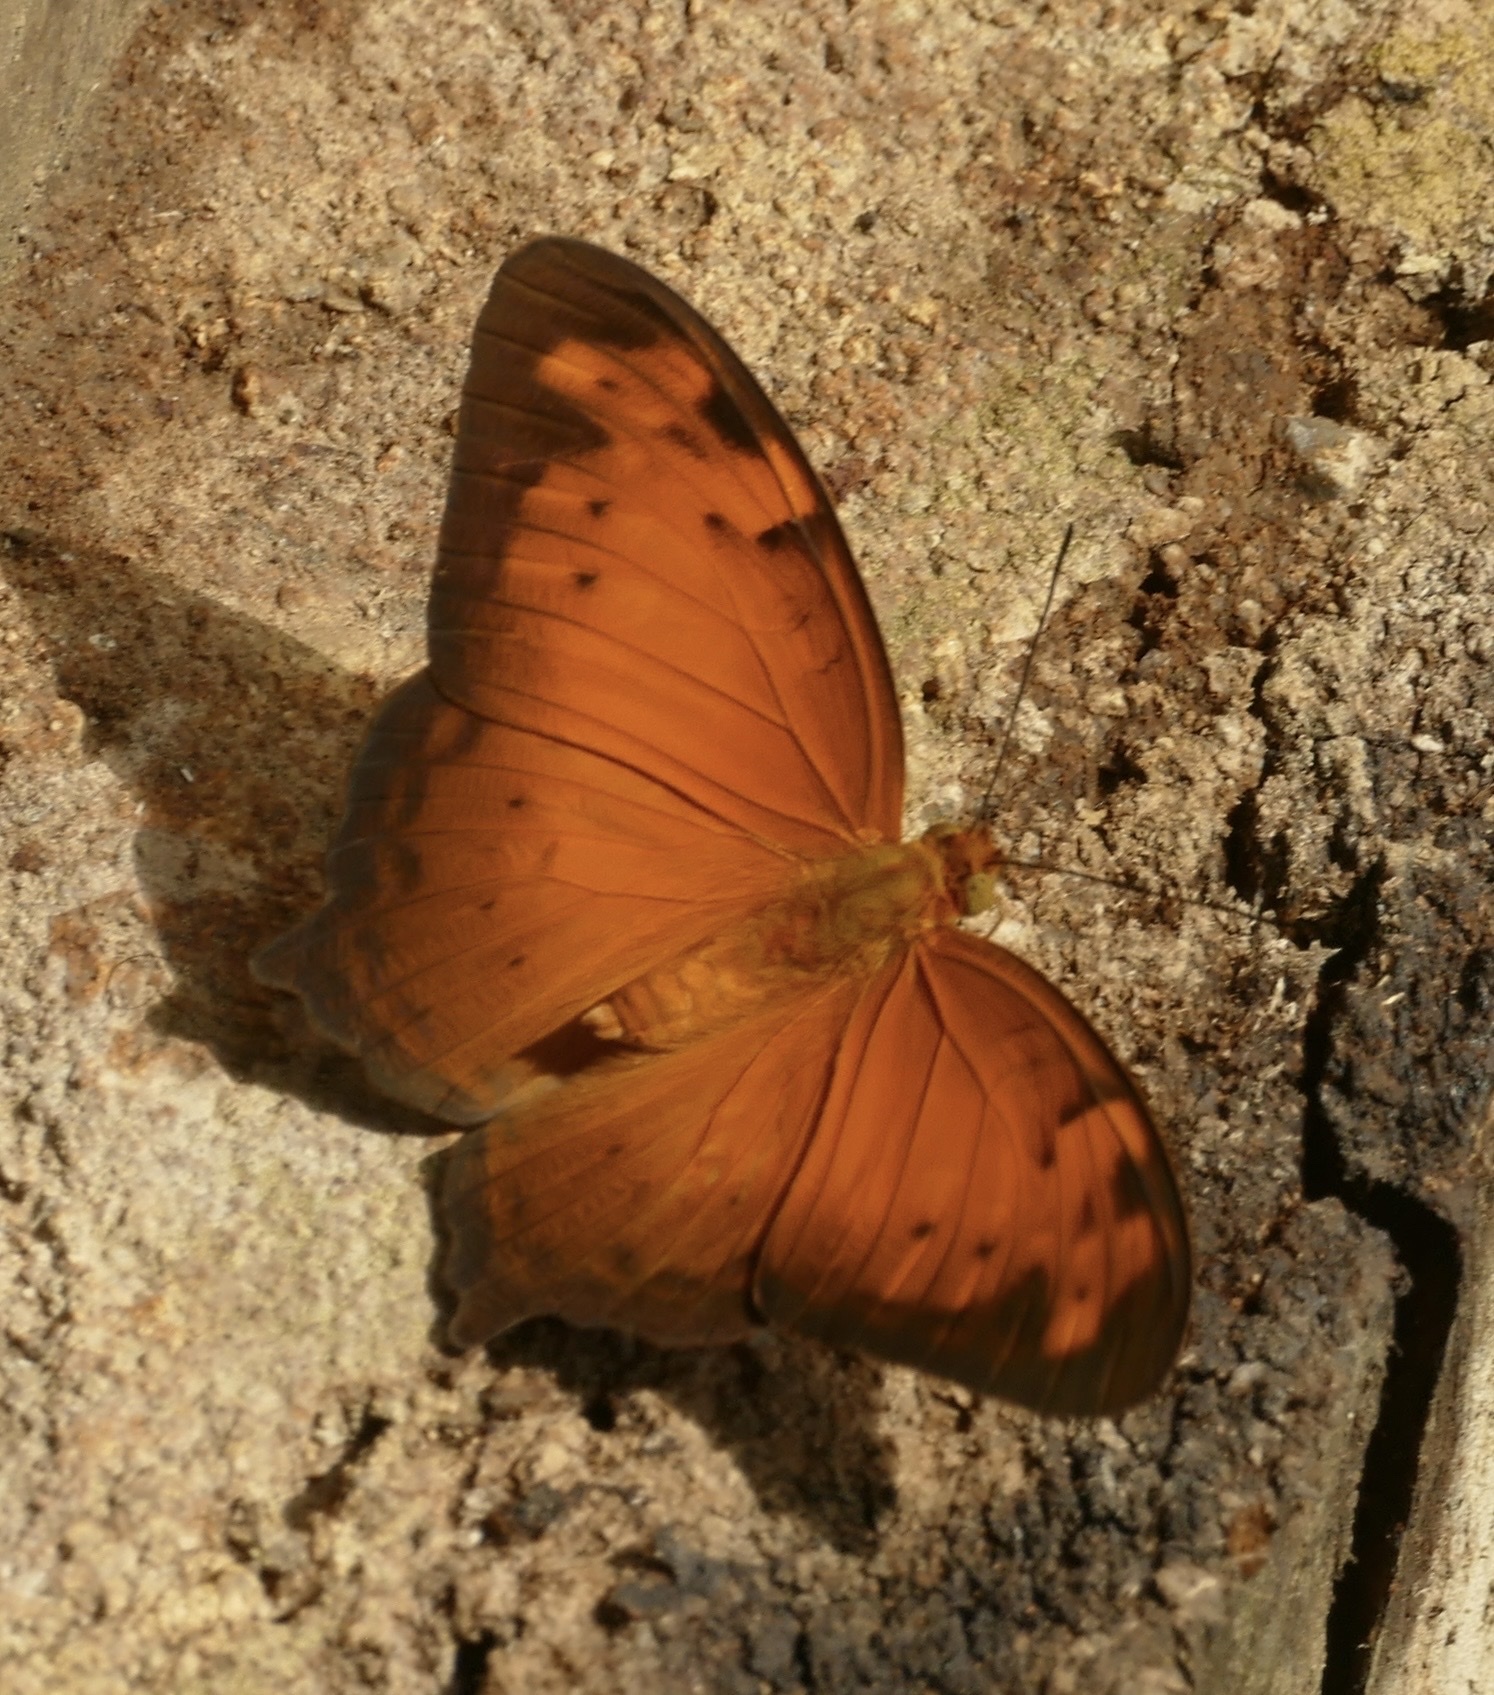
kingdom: Animalia
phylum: Arthropoda
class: Insecta
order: Lepidoptera
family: Nymphalidae
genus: Vagrans
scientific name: Vagrans egista
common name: Tailed rustic
